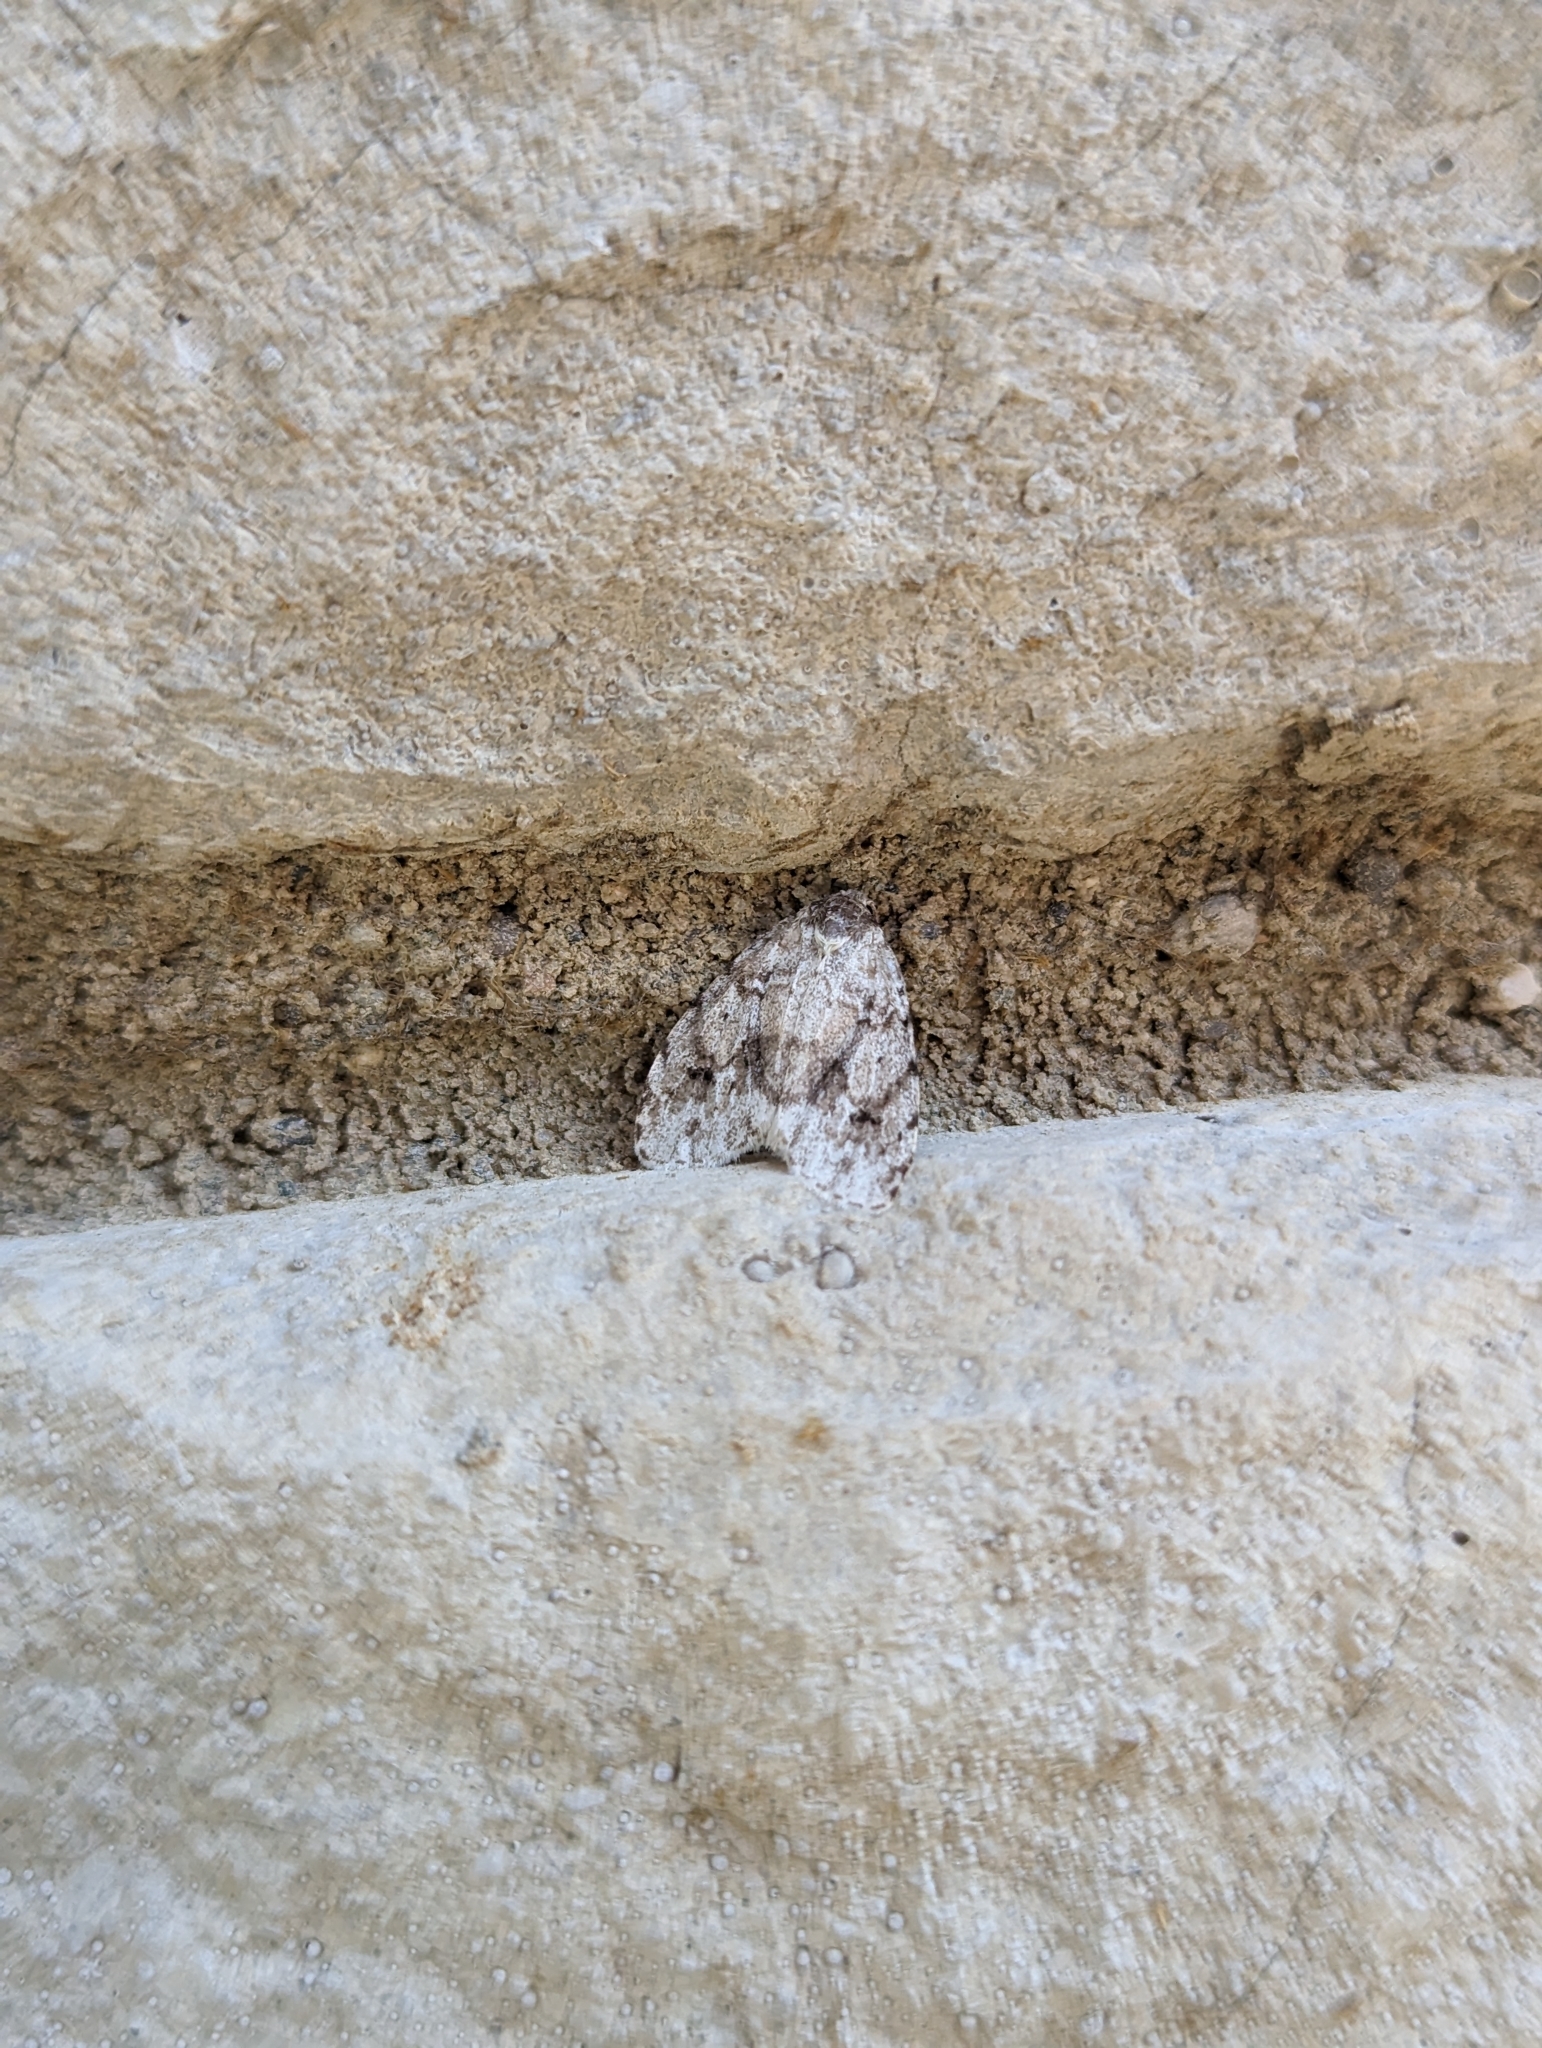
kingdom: Animalia
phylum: Arthropoda
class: Insecta
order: Lepidoptera
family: Erebidae
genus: Clemensia
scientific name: Clemensia albata
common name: Little white lichen moth
